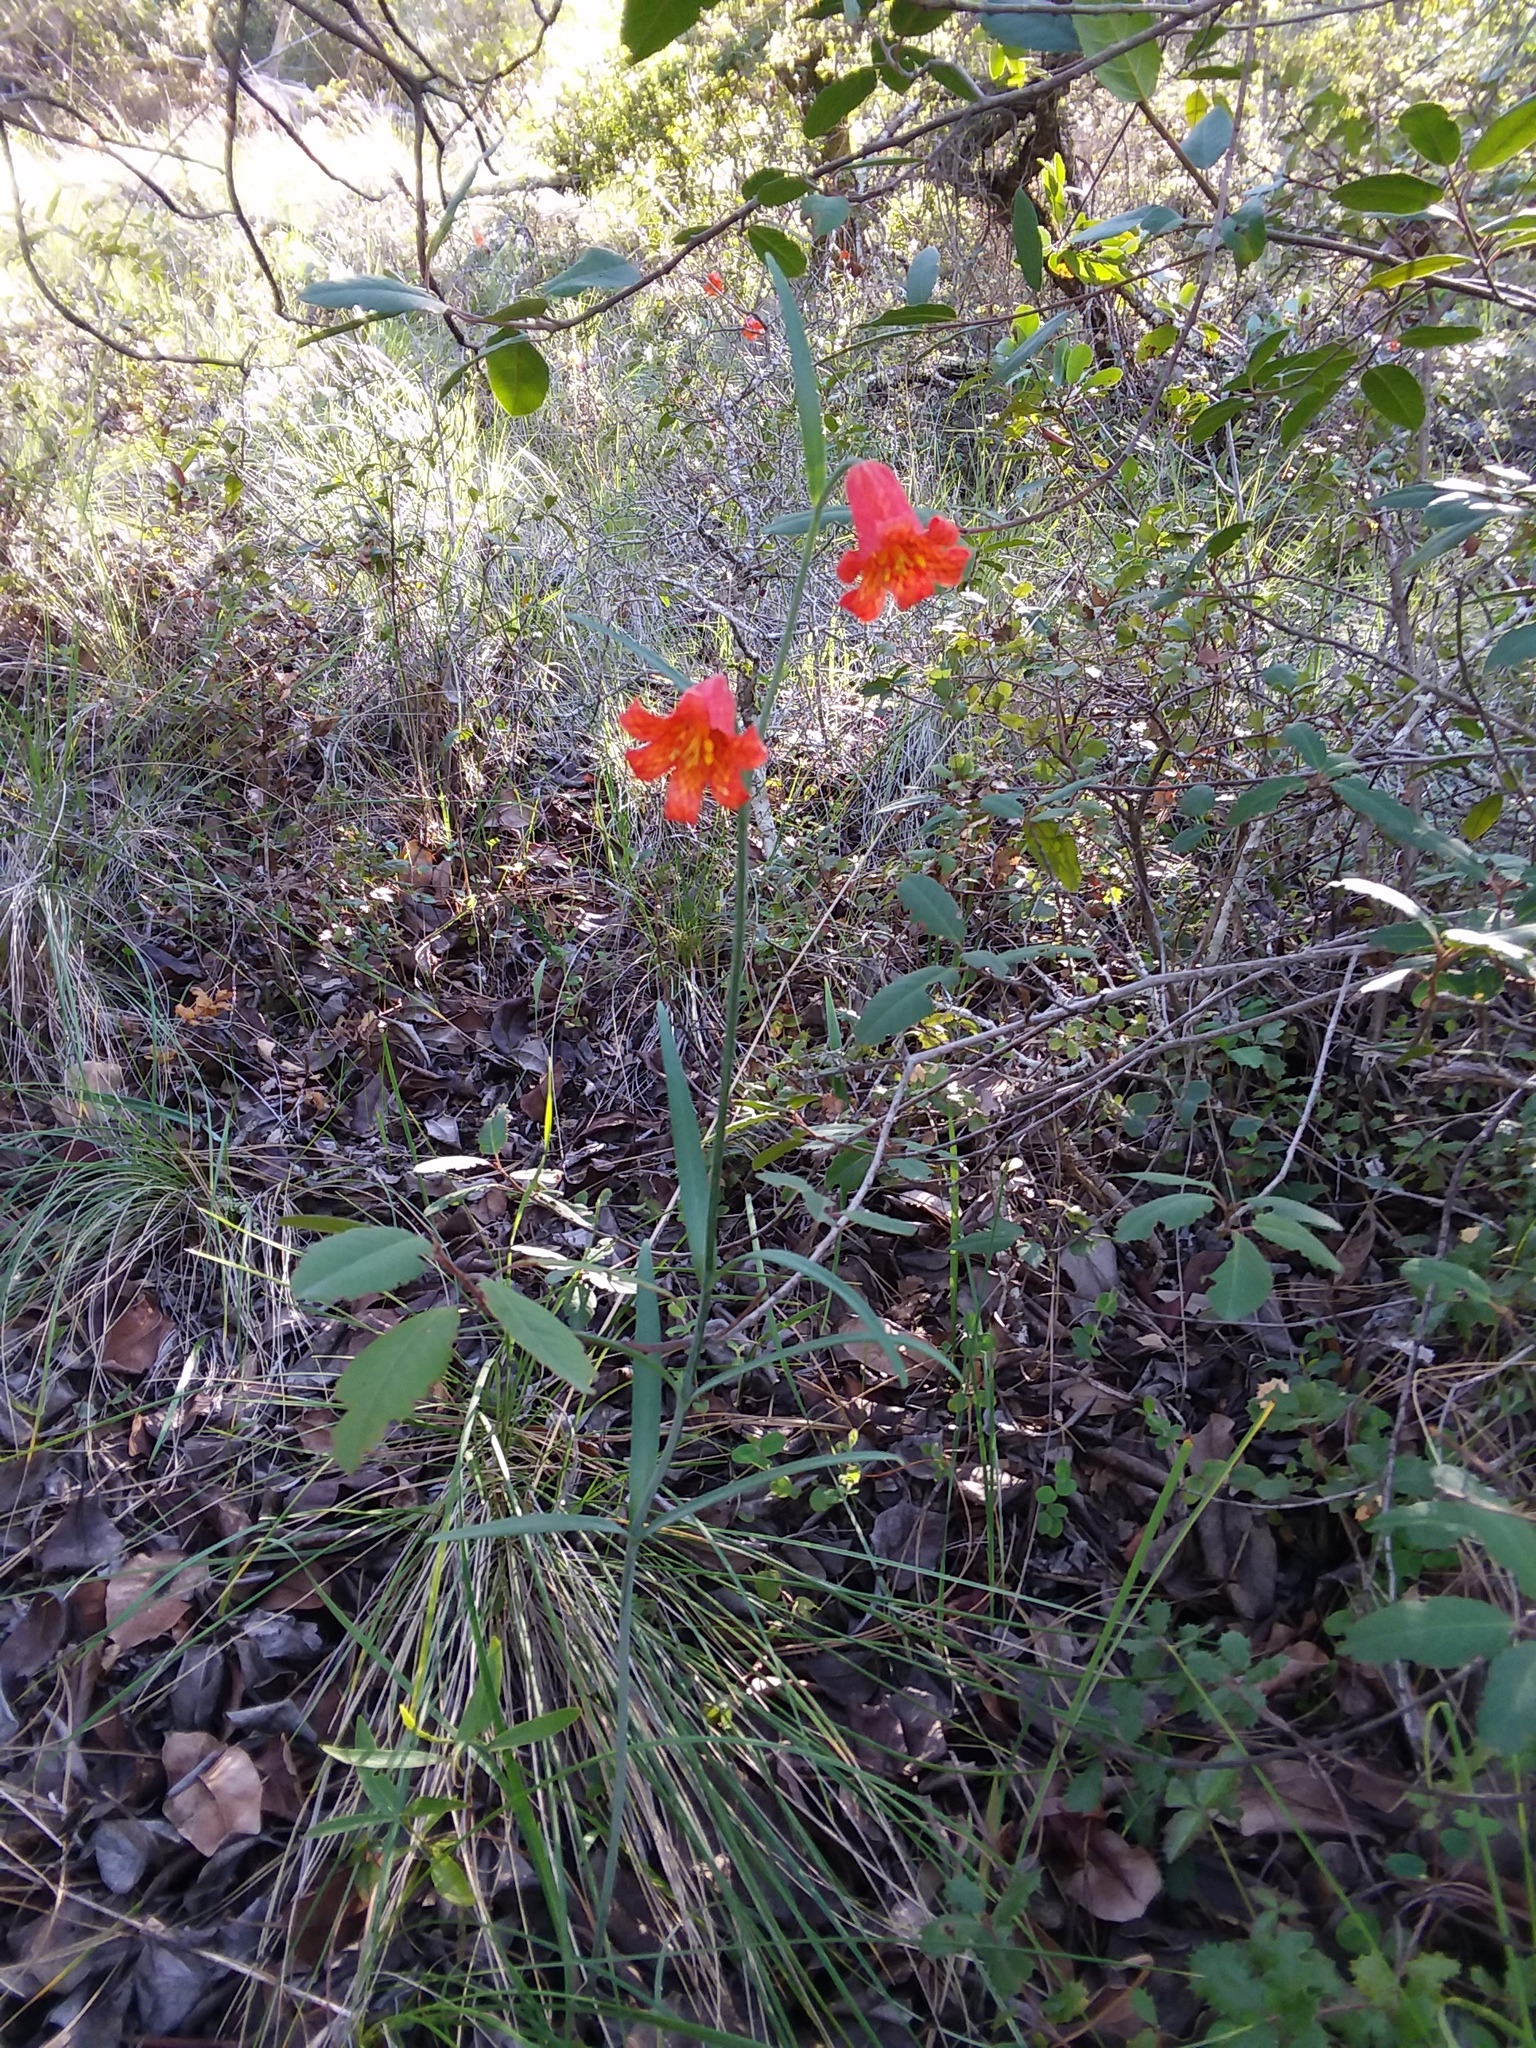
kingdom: Plantae
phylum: Tracheophyta
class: Liliopsida
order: Liliales
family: Liliaceae
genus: Fritillaria
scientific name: Fritillaria recurva
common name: Scarlet fritillary
